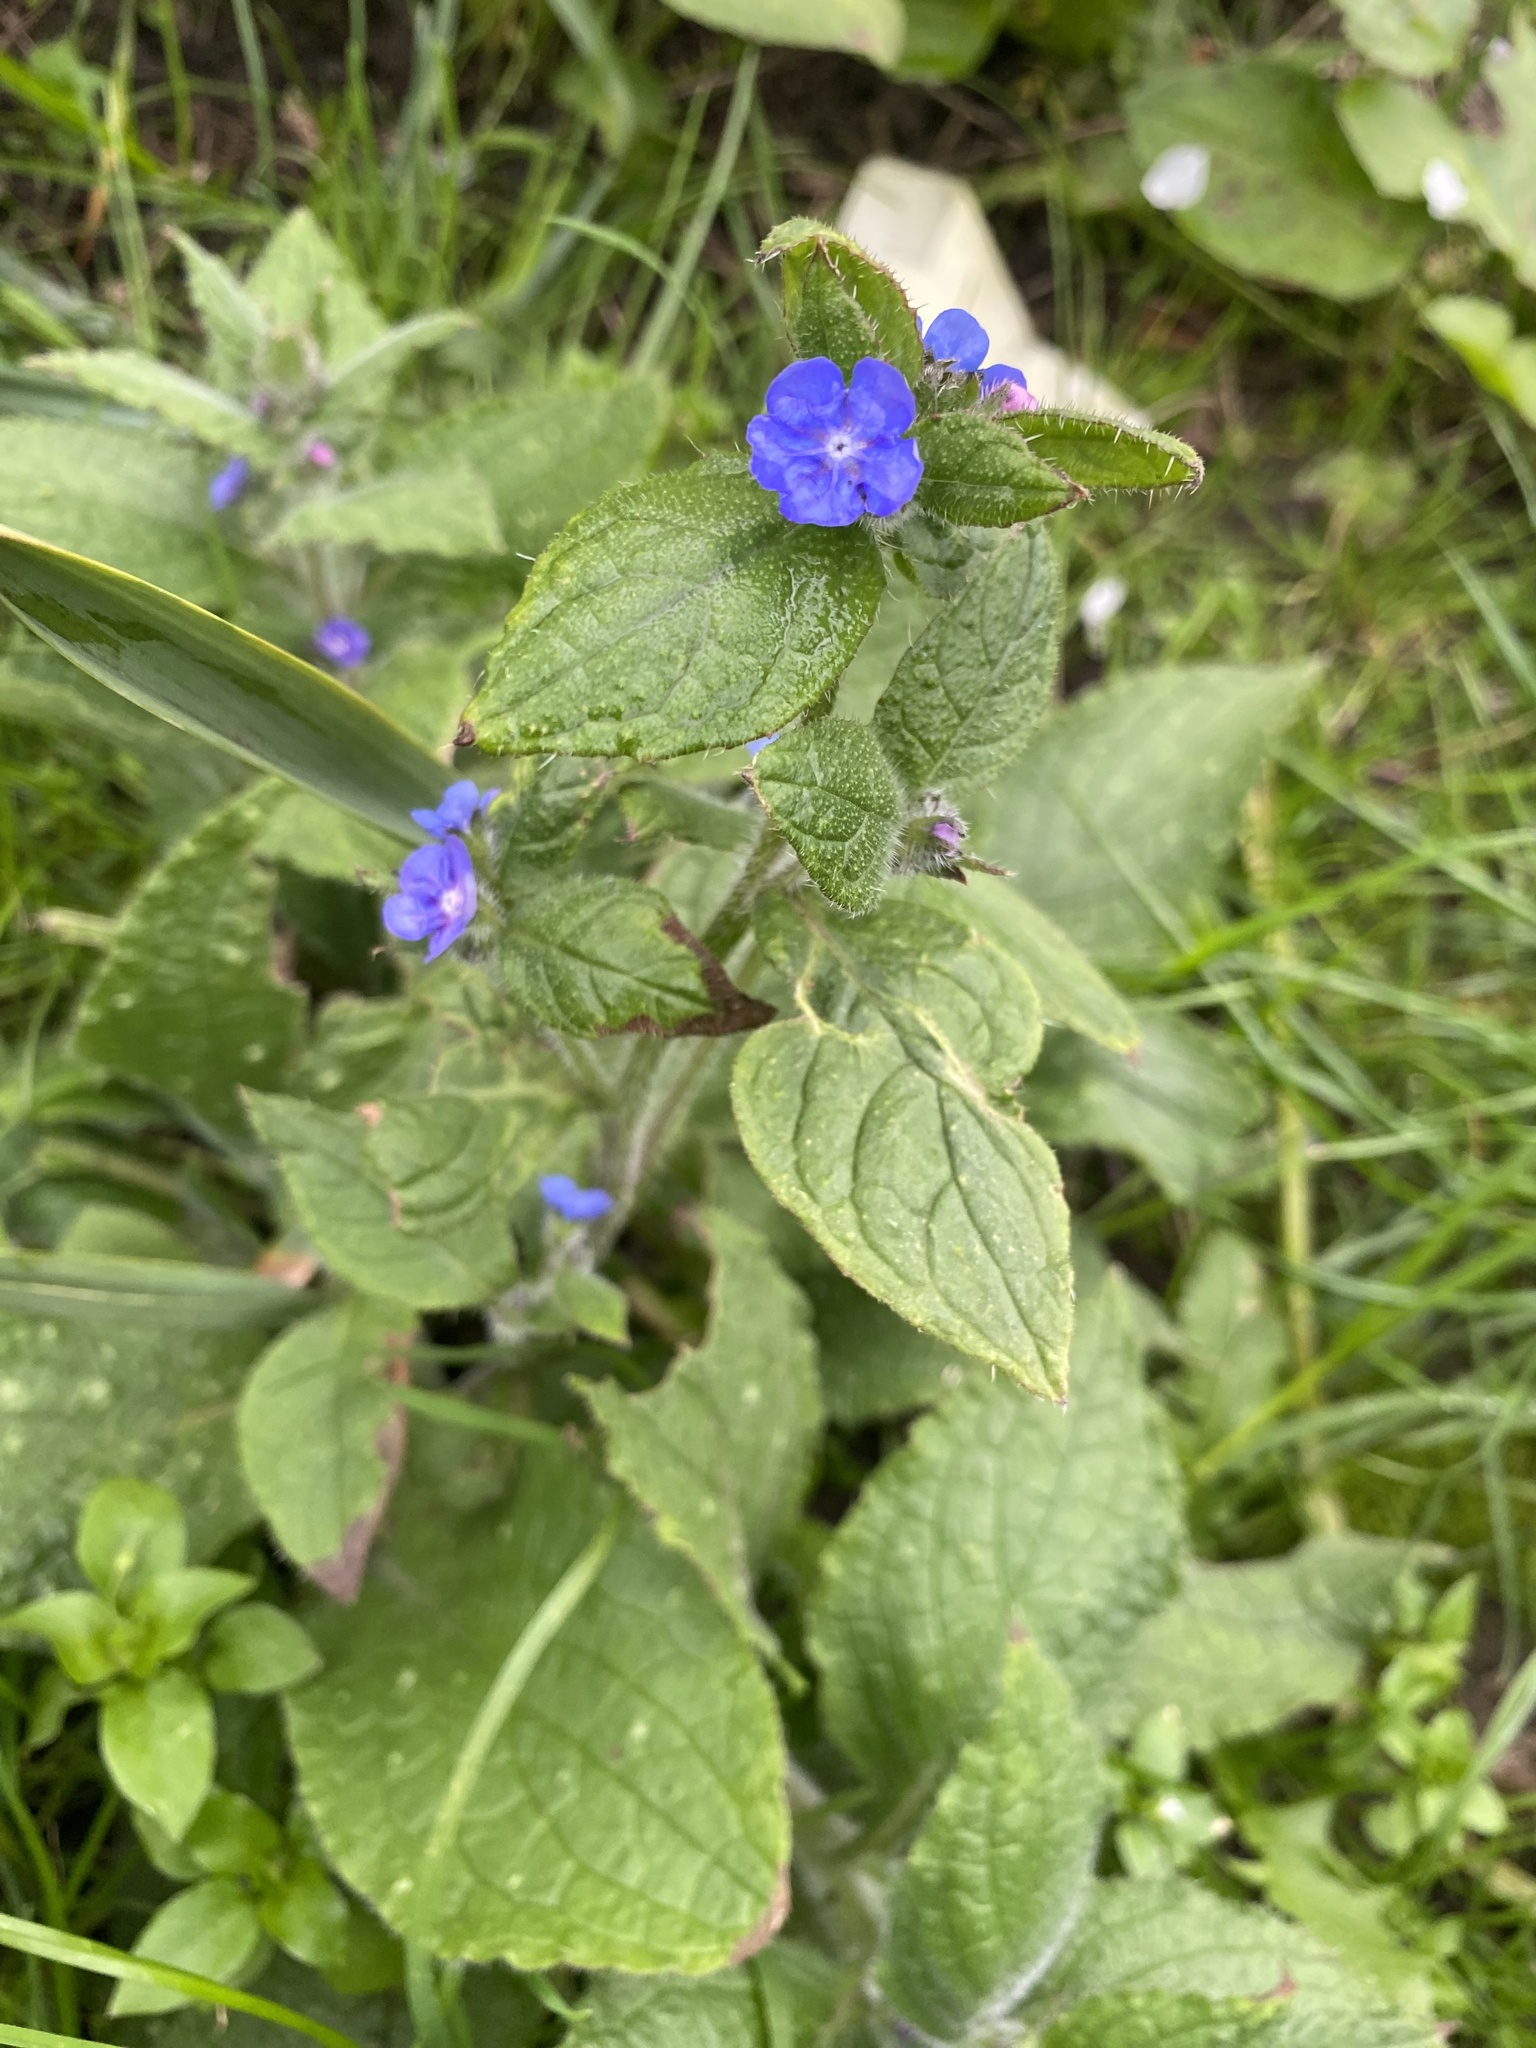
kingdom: Plantae
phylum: Tracheophyta
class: Magnoliopsida
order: Boraginales
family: Boraginaceae
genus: Pentaglottis
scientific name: Pentaglottis sempervirens
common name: Green alkanet
